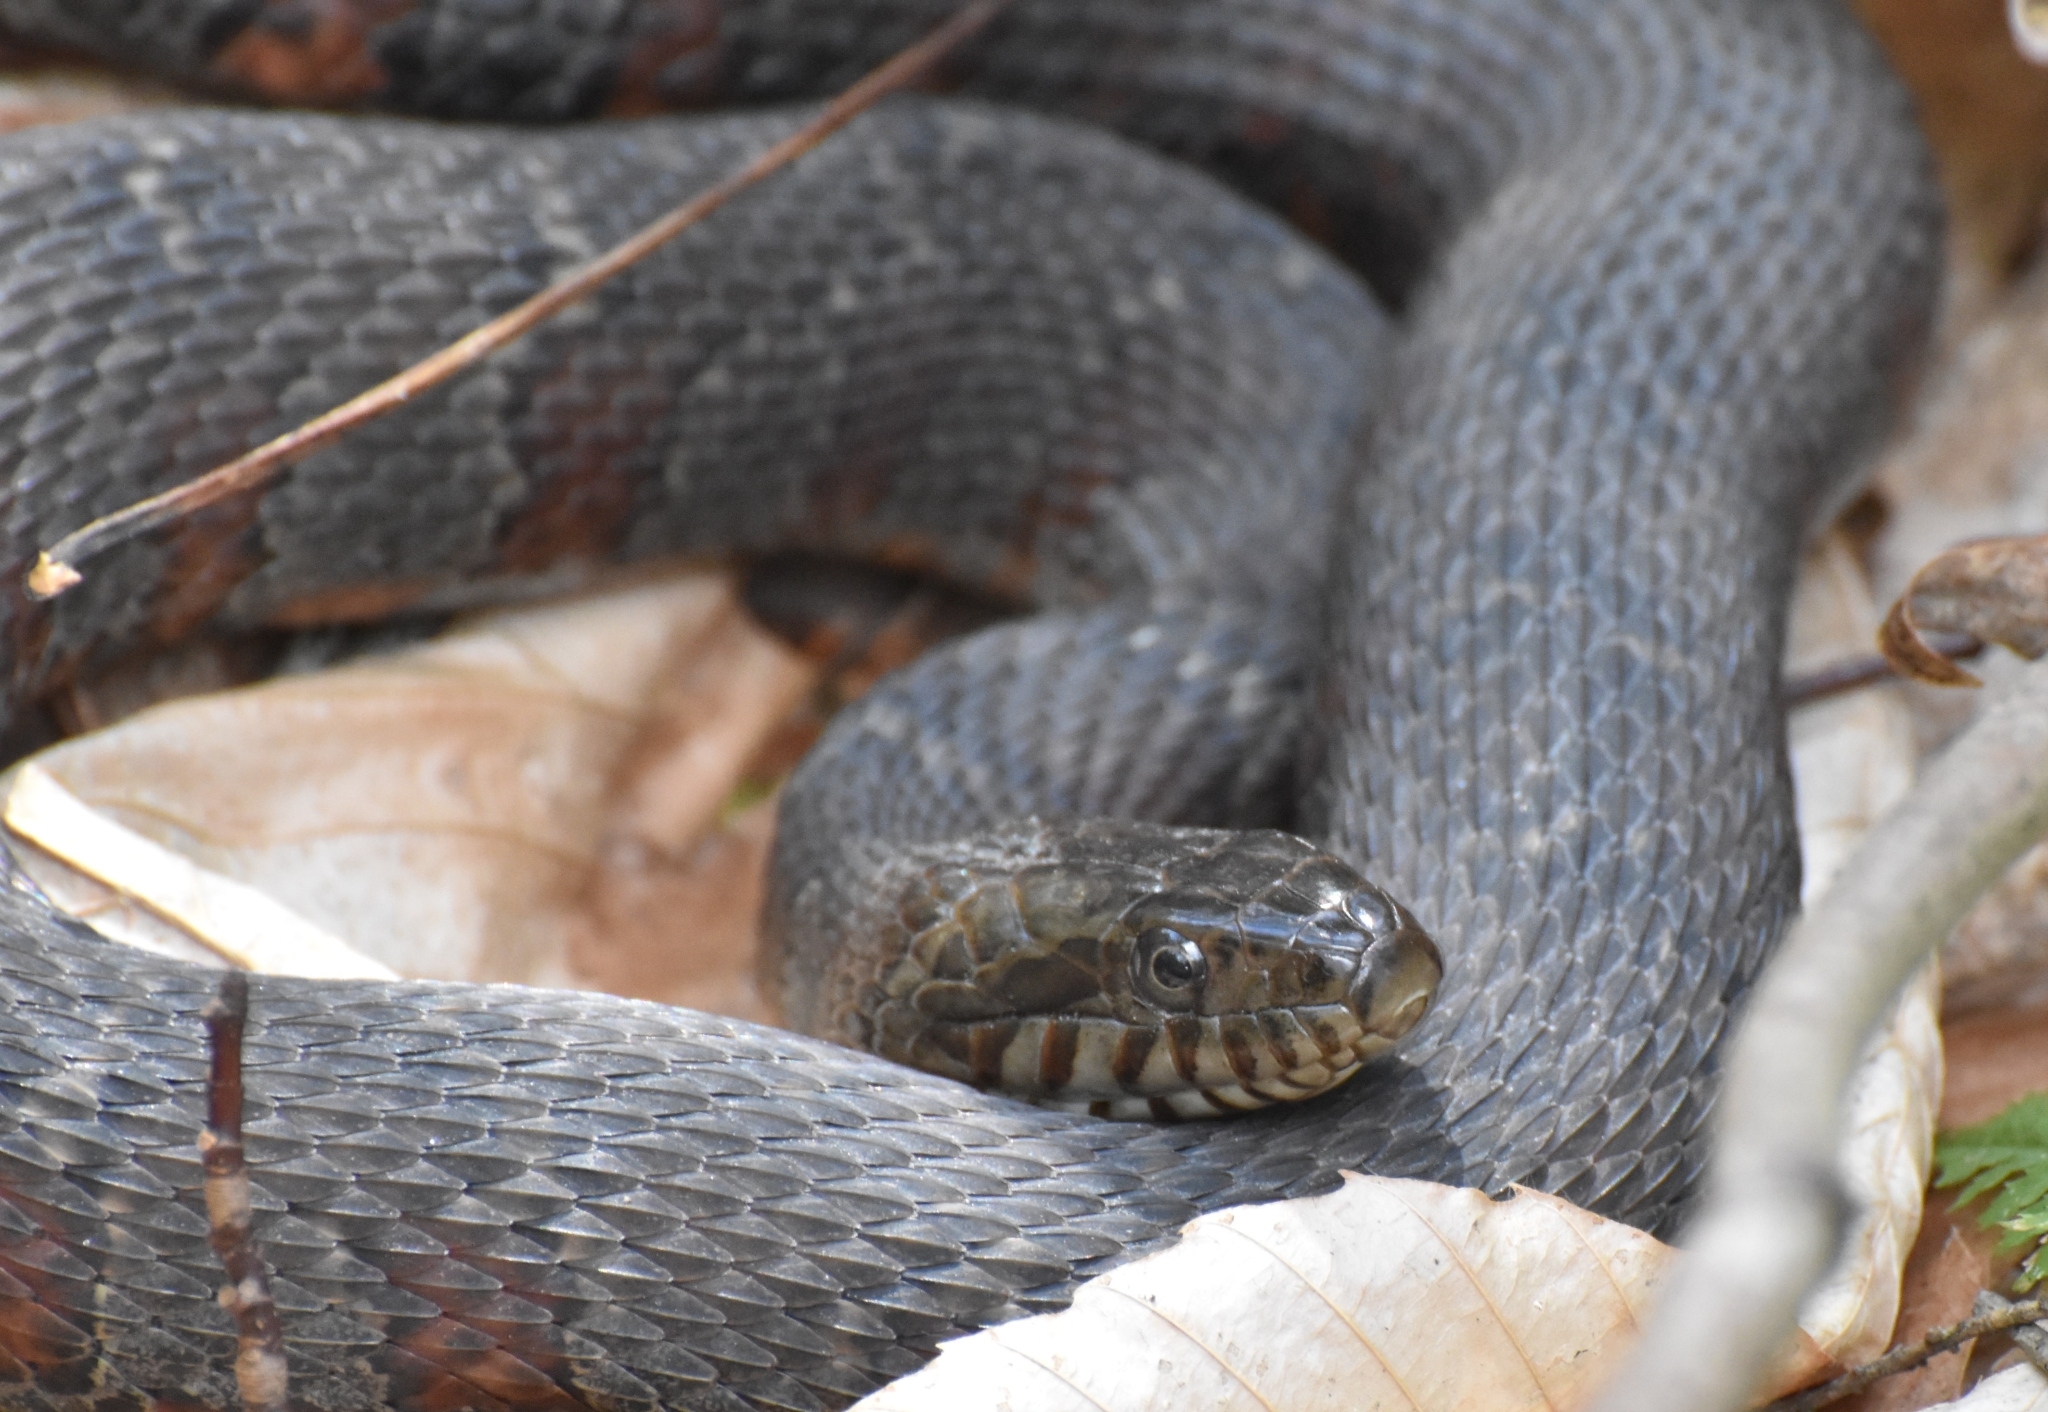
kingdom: Animalia
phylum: Chordata
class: Squamata
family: Colubridae
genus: Nerodia
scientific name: Nerodia sipedon
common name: Northern water snake
